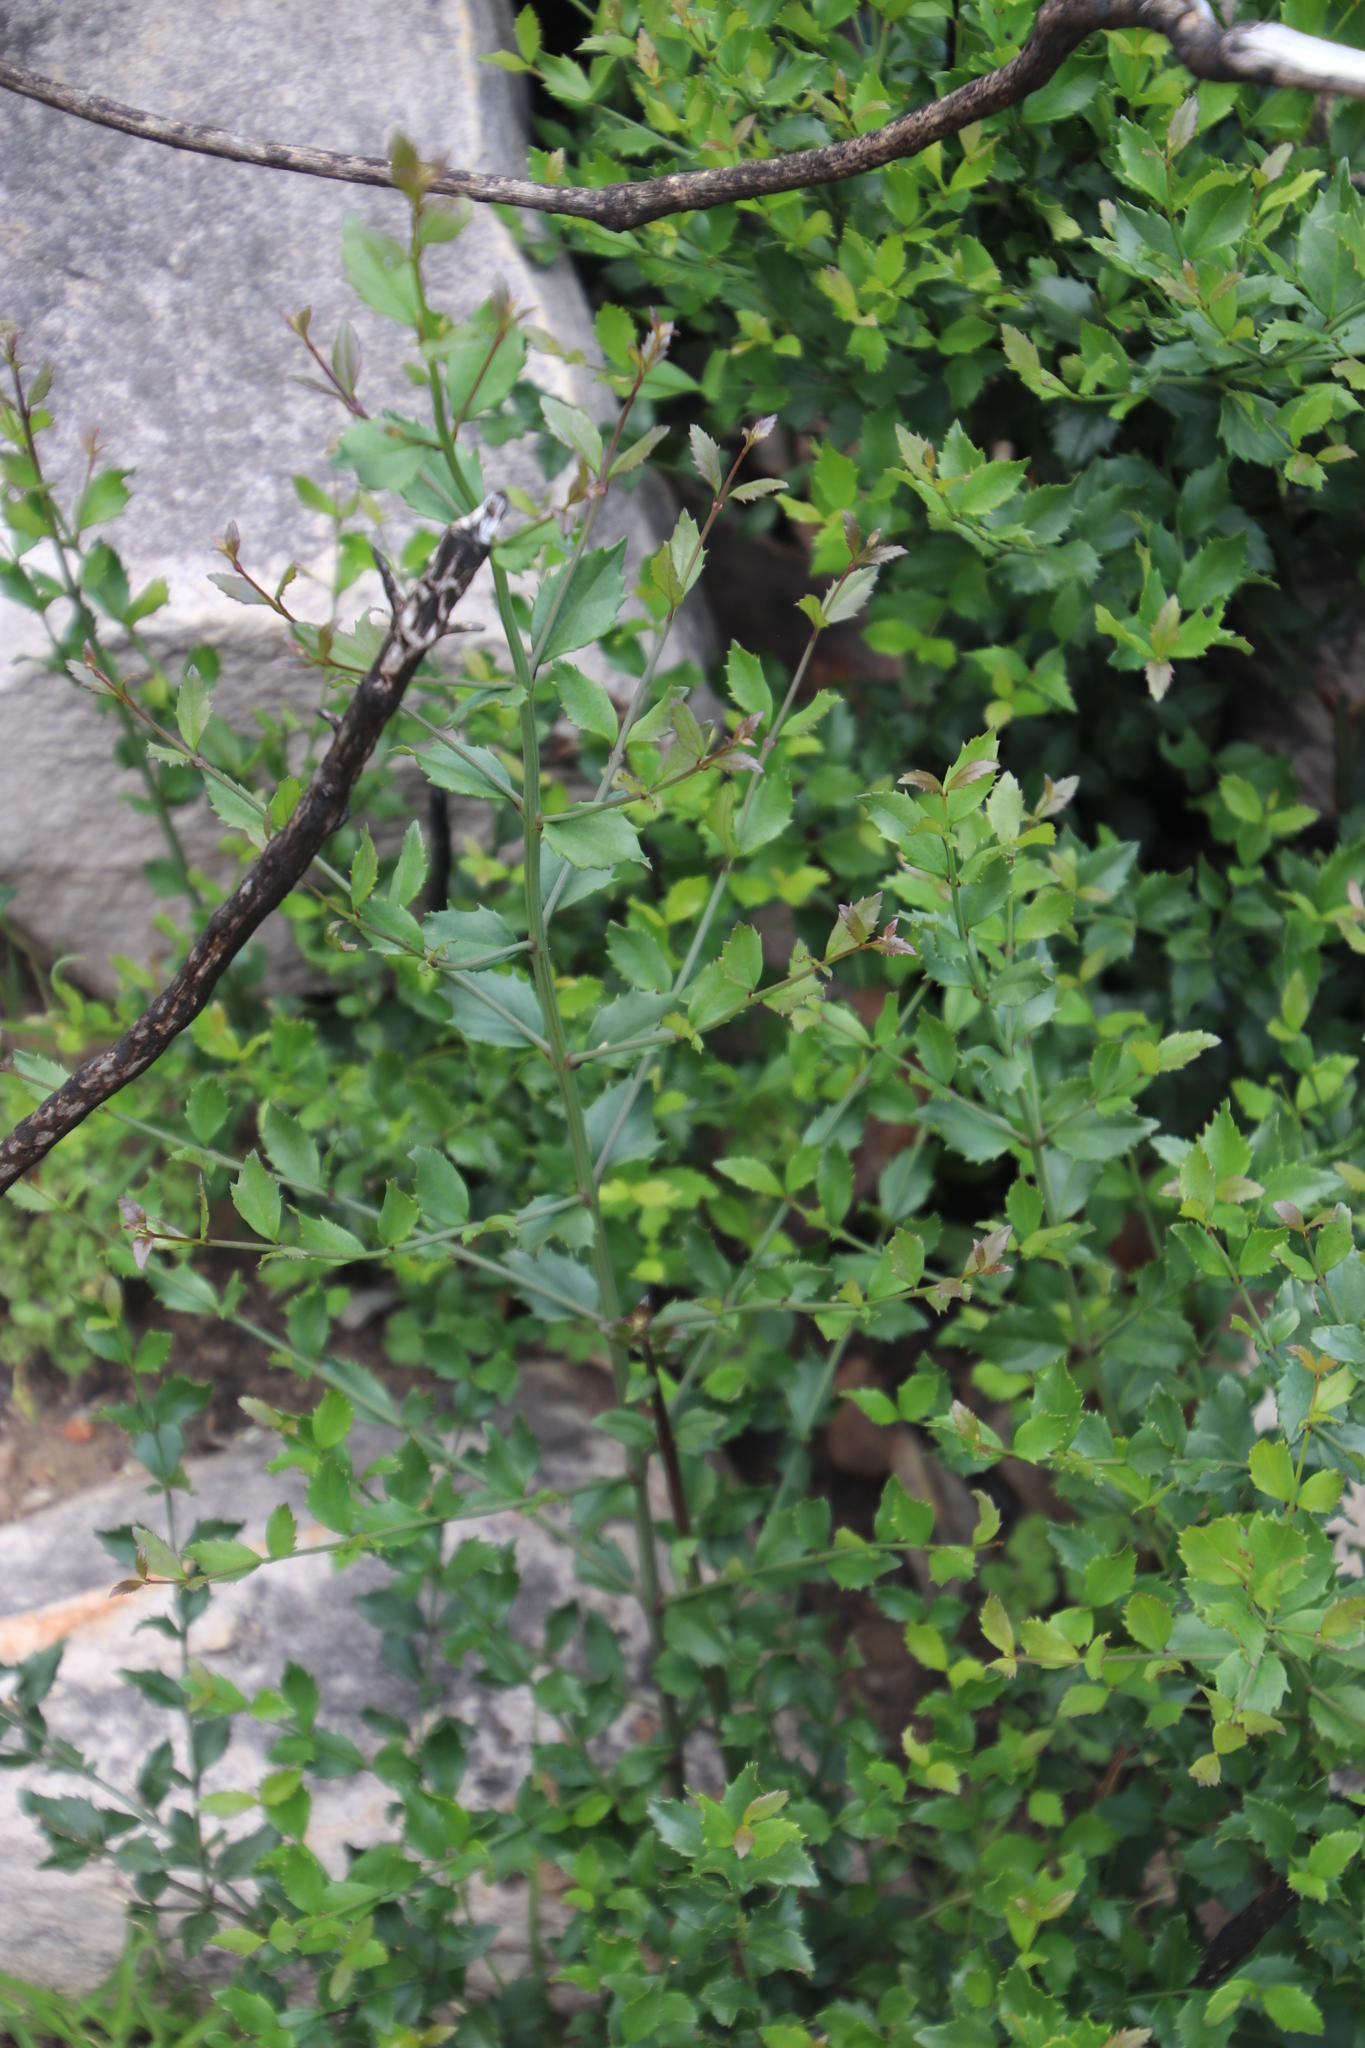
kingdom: Plantae
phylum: Tracheophyta
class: Magnoliopsida
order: Lamiales
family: Stilbaceae
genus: Halleria
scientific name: Halleria elliptica
